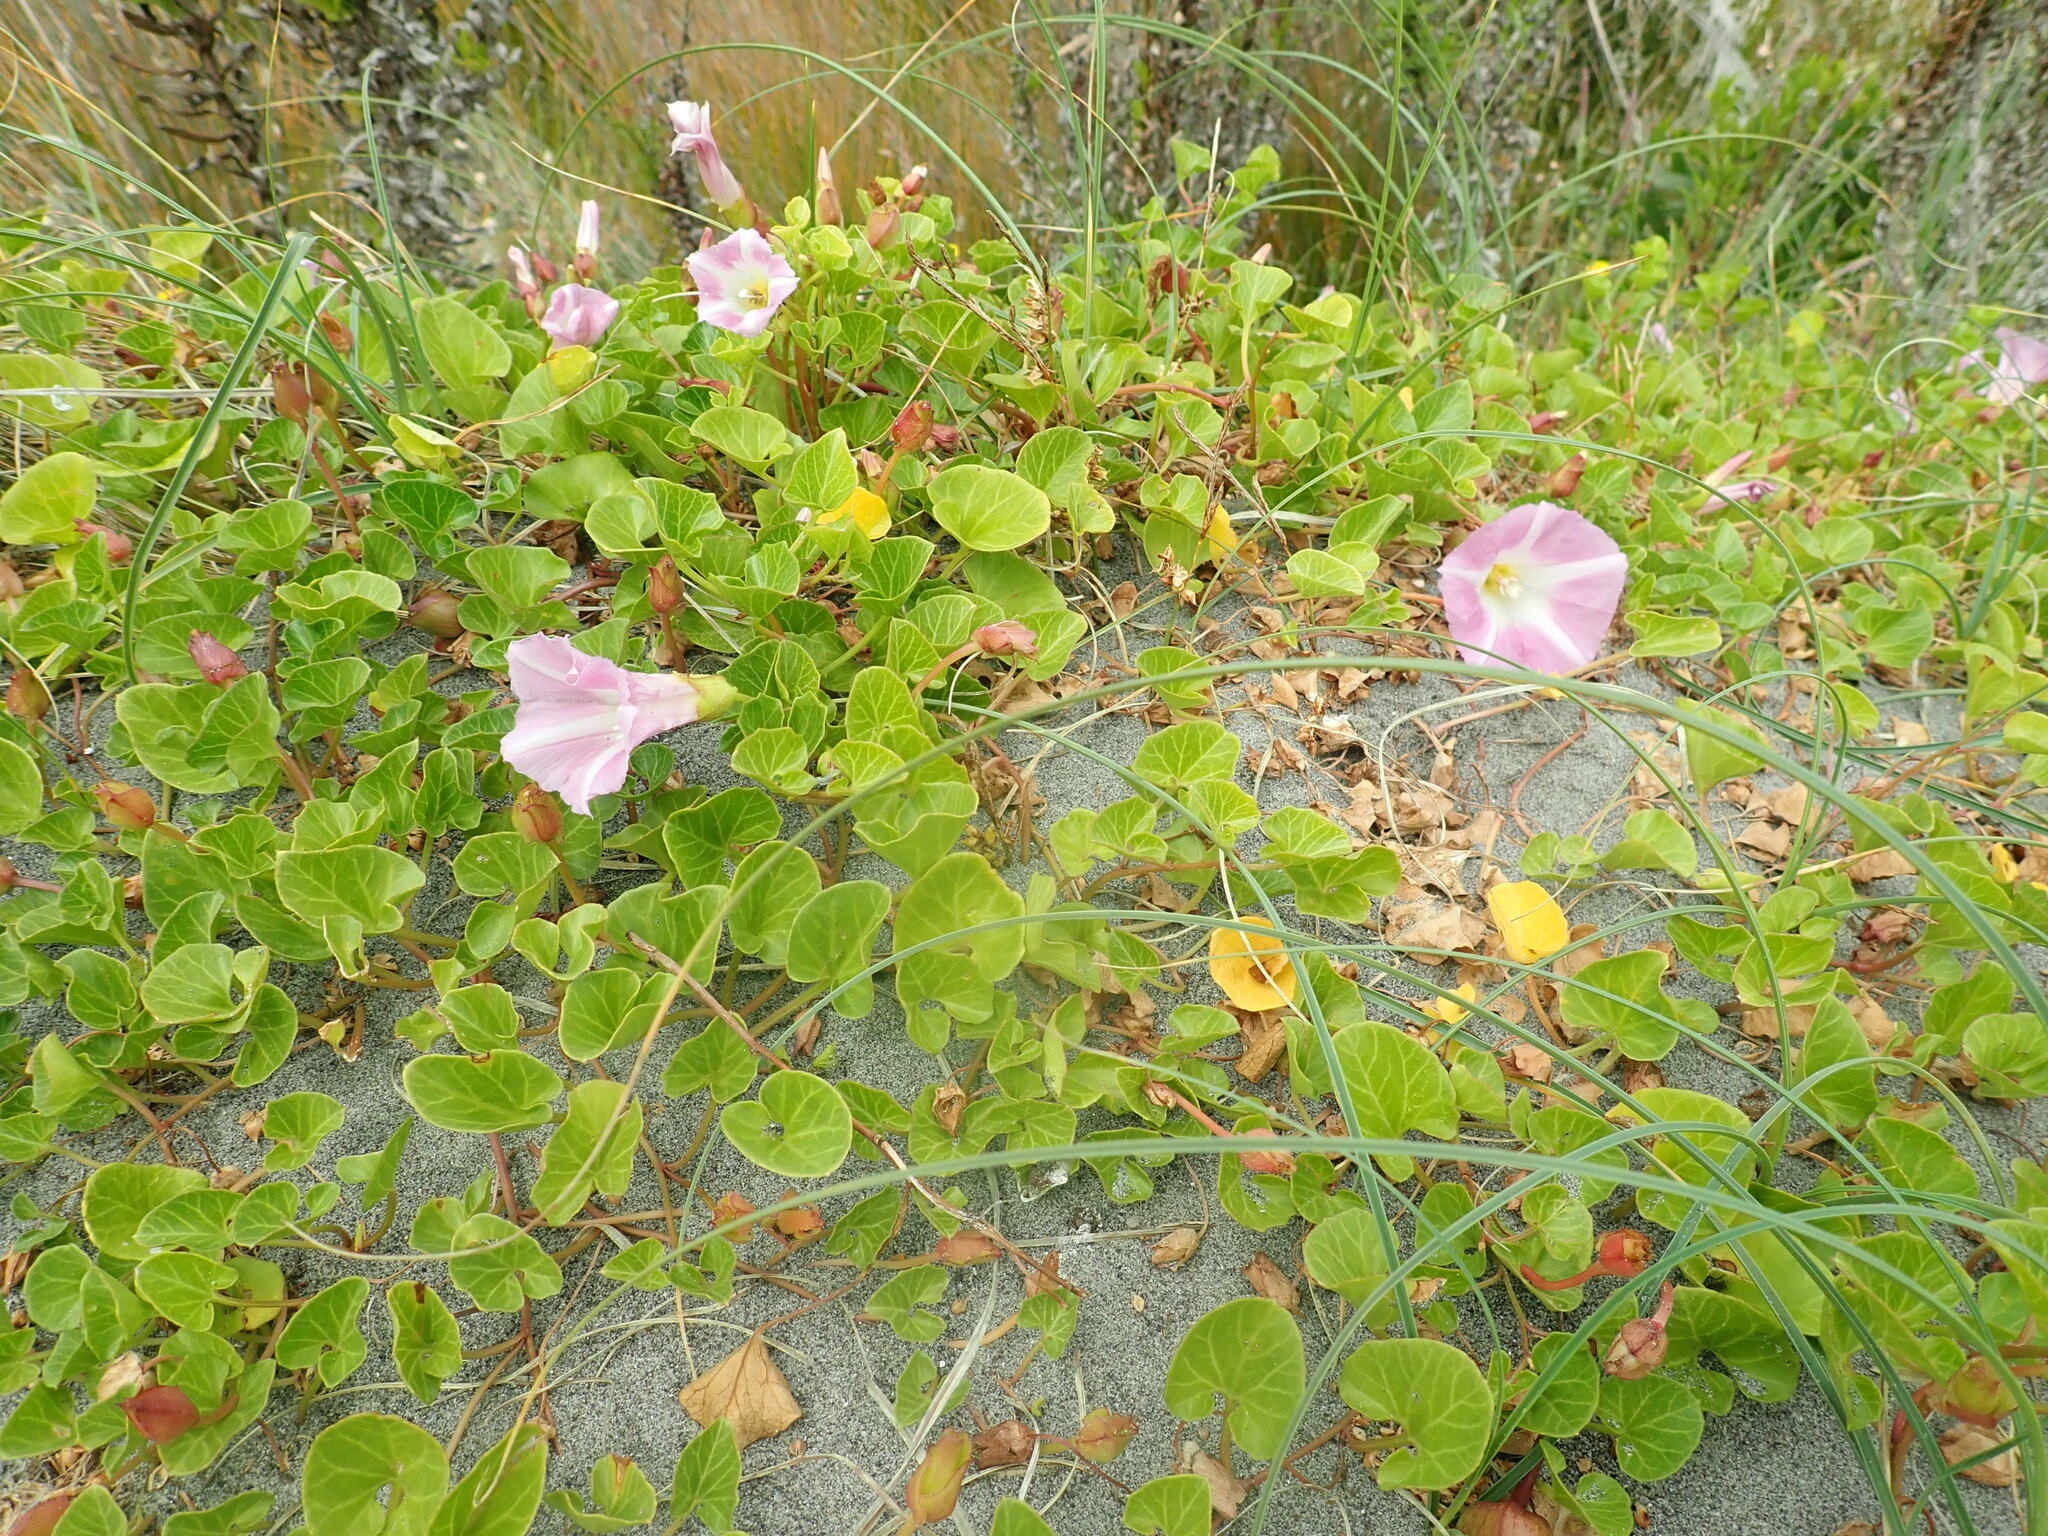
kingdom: Plantae
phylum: Tracheophyta
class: Magnoliopsida
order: Solanales
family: Convolvulaceae
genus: Calystegia
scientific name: Calystegia soldanella
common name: Sea bindweed
